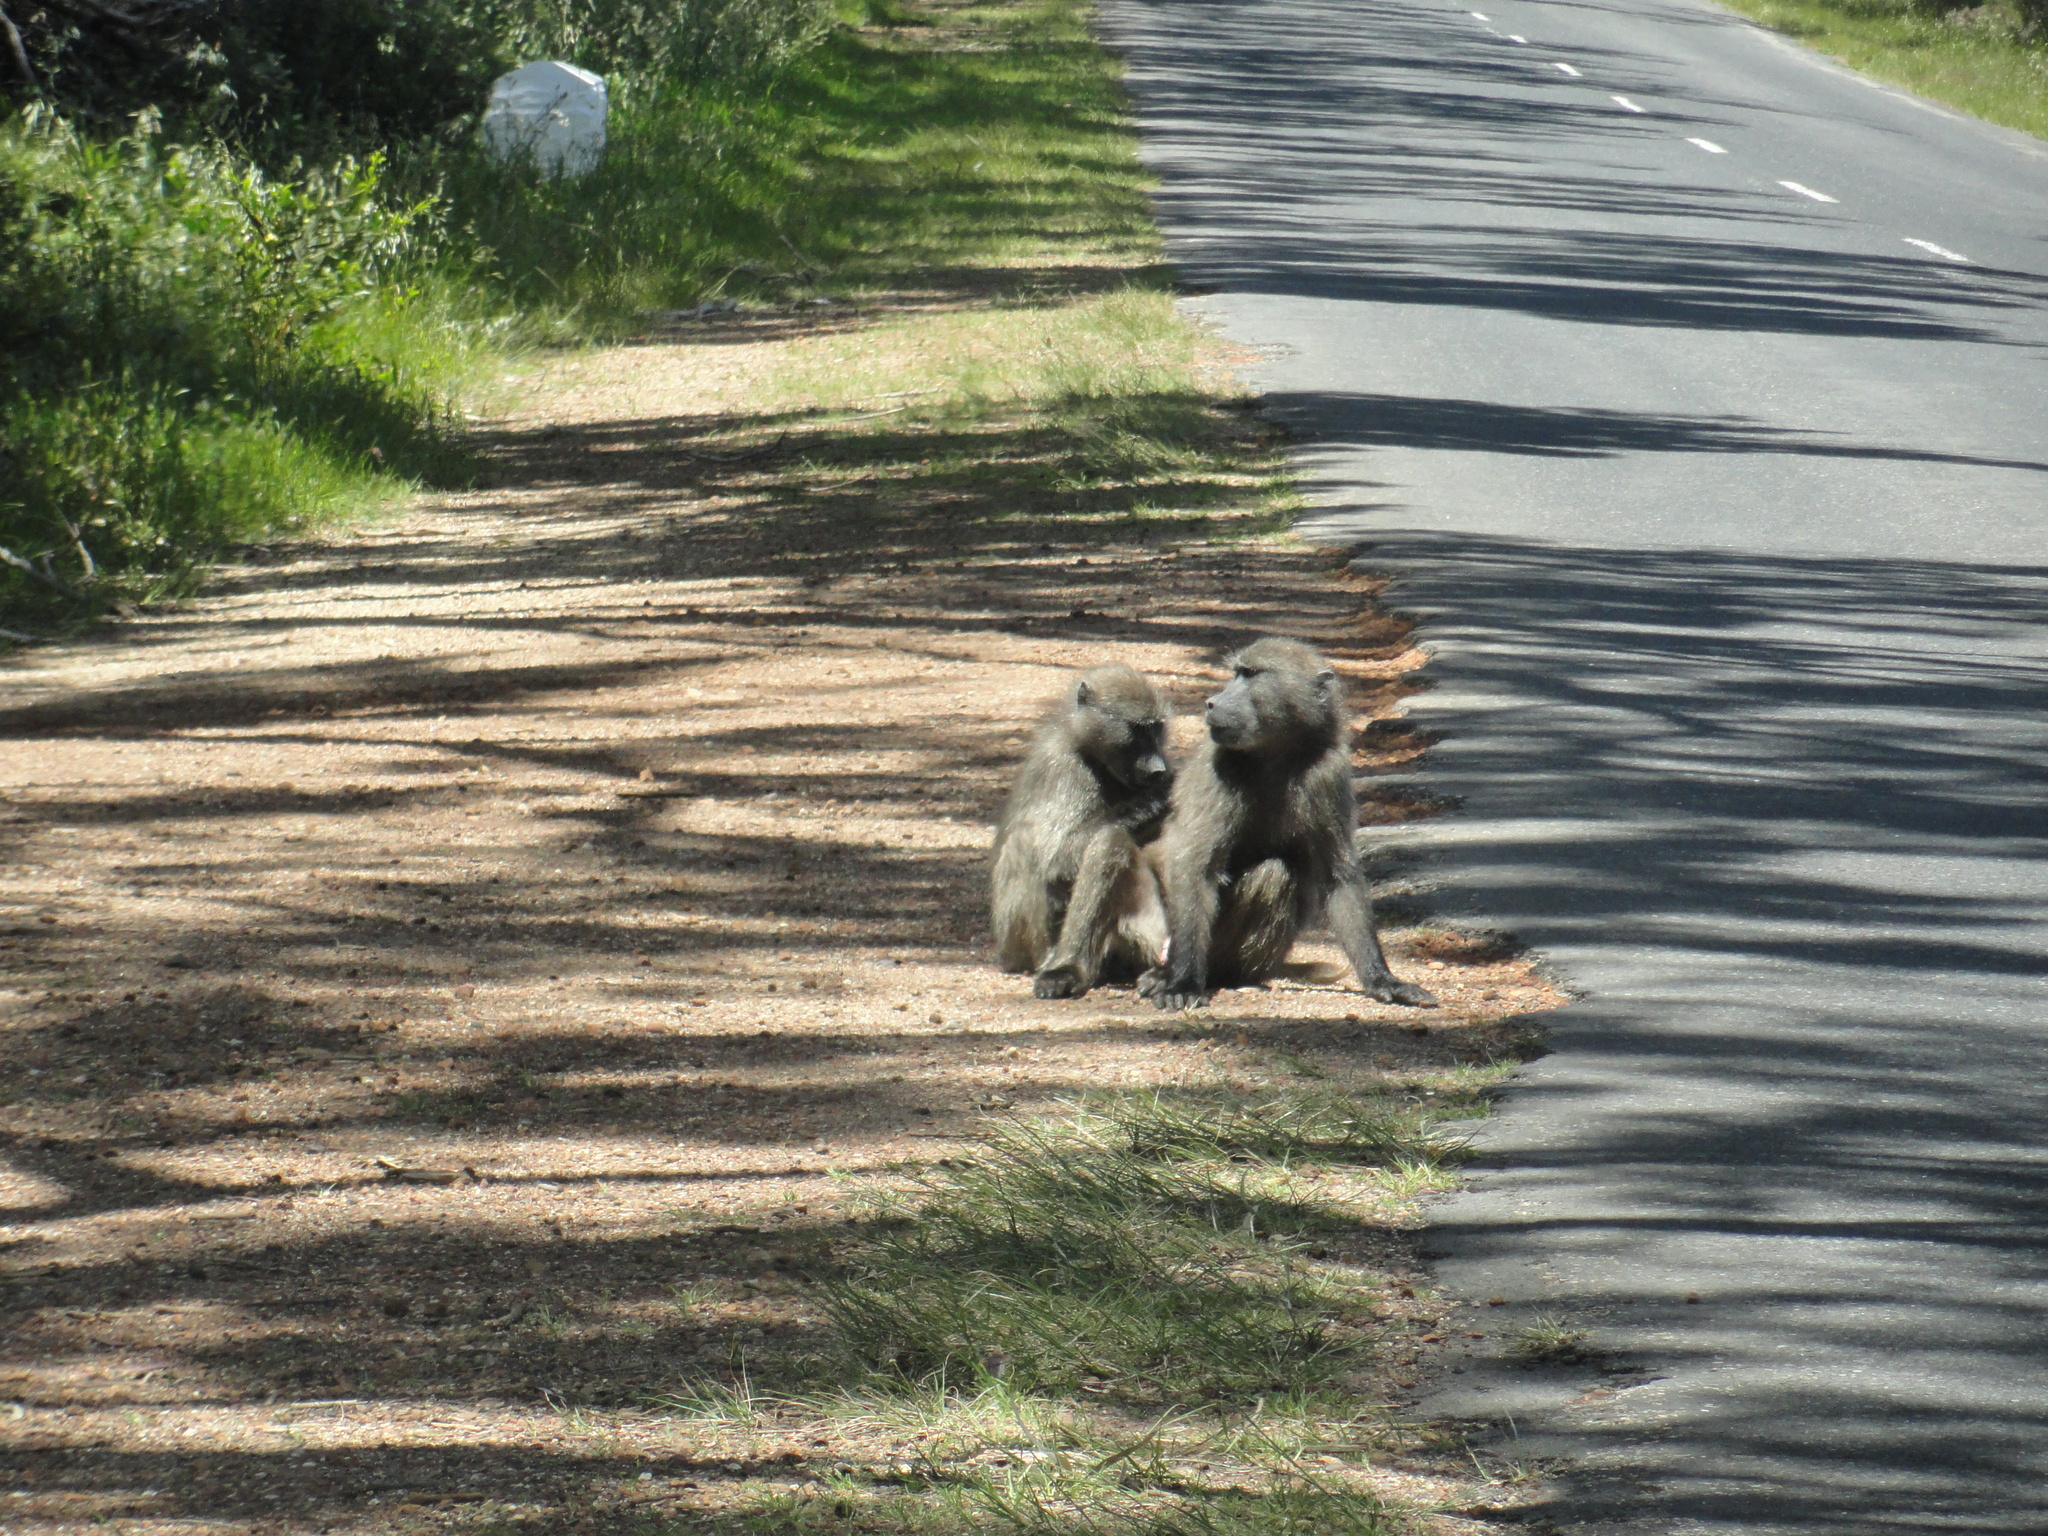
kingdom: Animalia
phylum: Chordata
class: Mammalia
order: Primates
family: Cercopithecidae
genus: Papio
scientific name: Papio ursinus
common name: Chacma baboon
